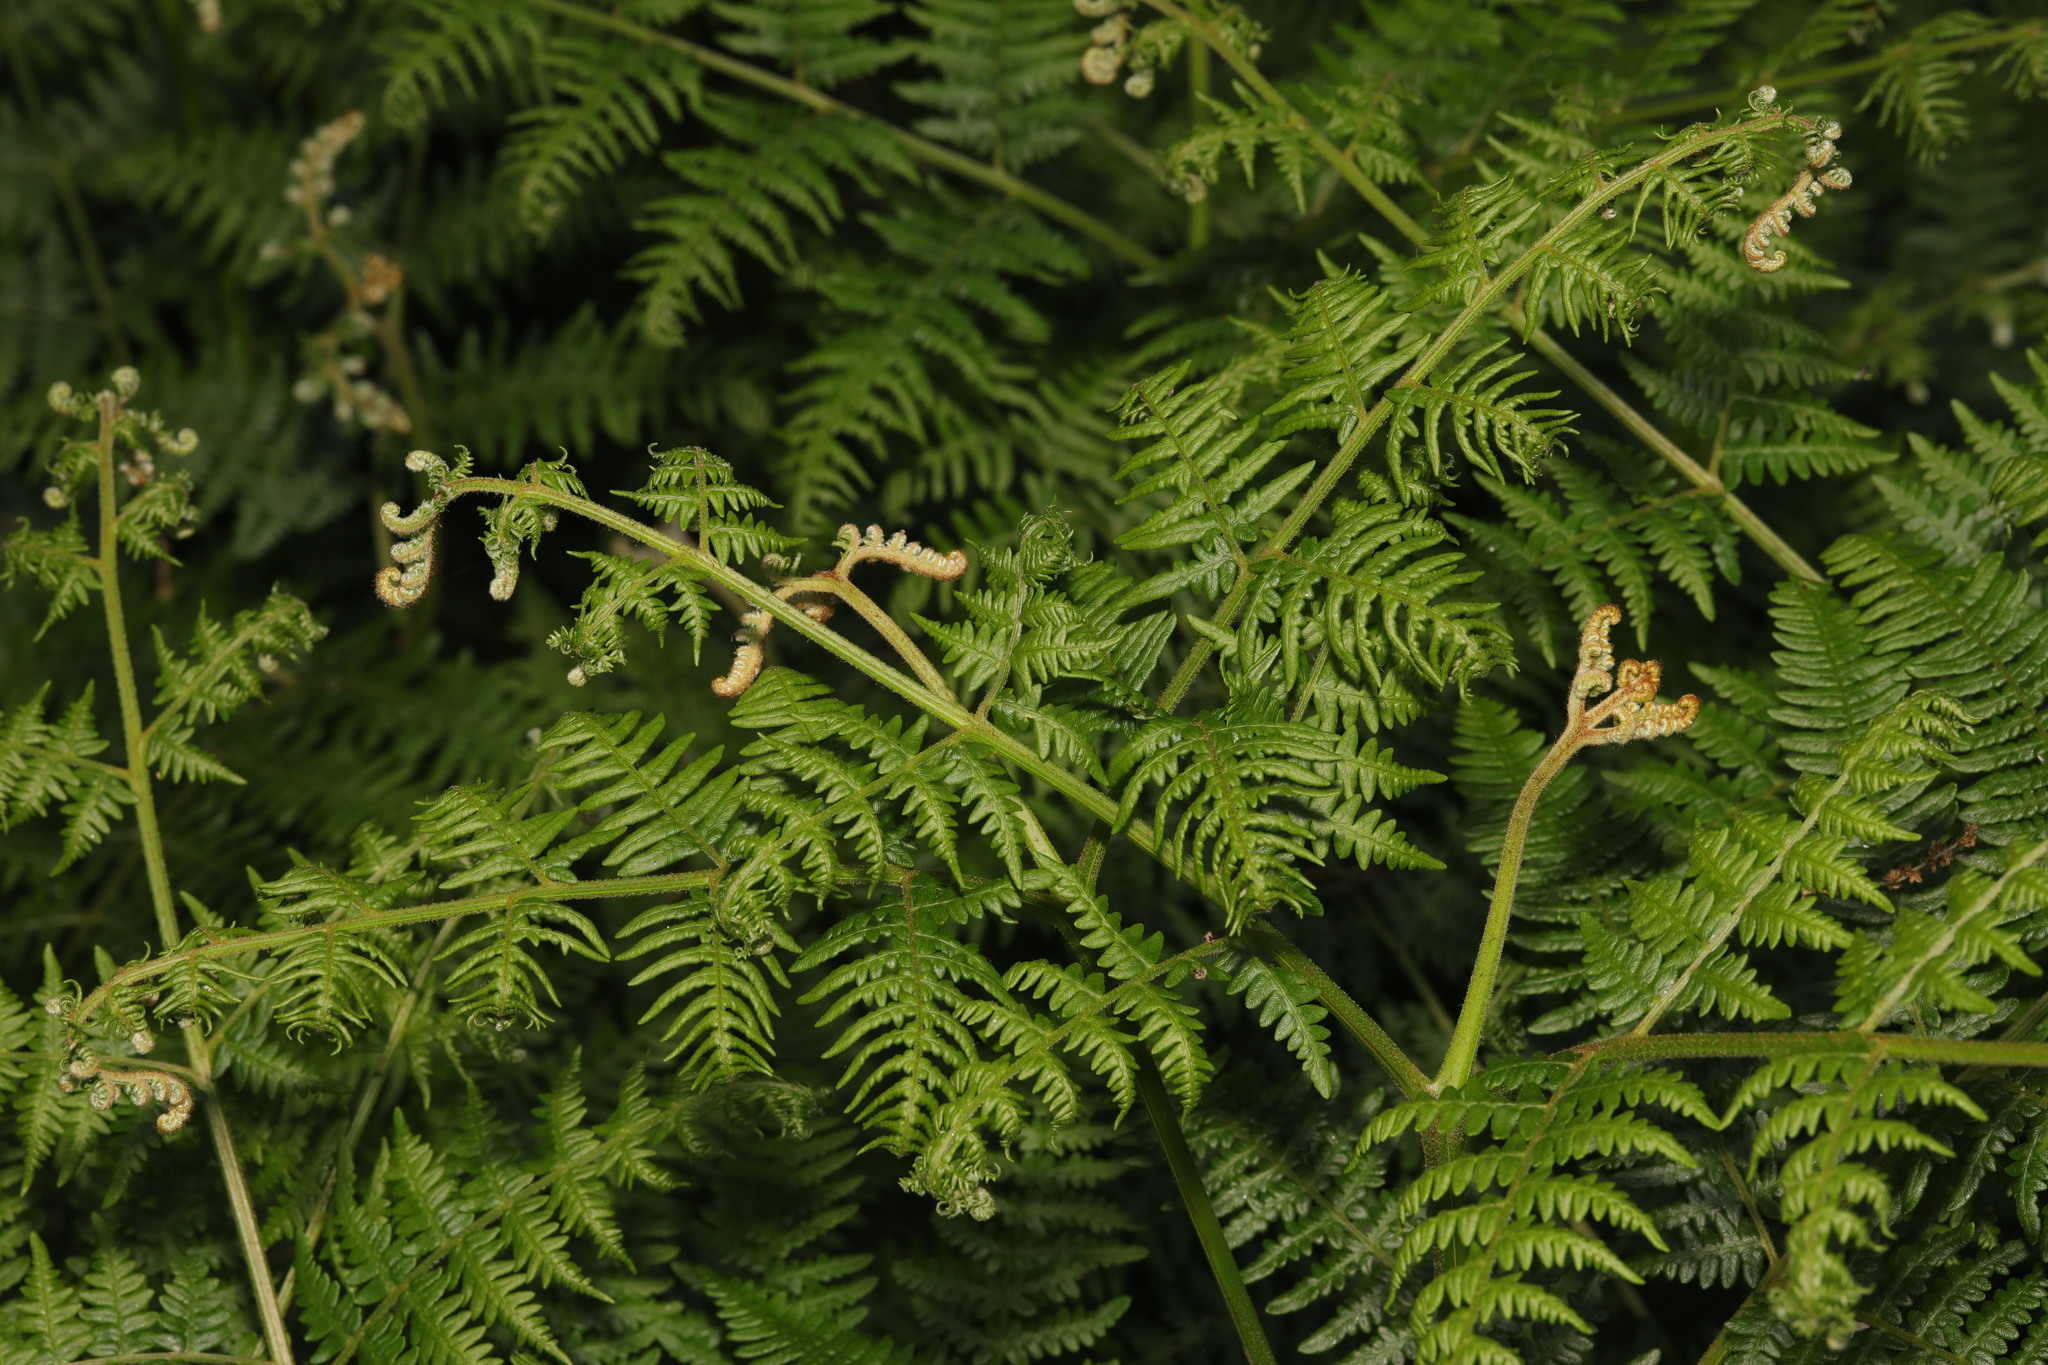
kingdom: Plantae
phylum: Tracheophyta
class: Polypodiopsida
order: Polypodiales
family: Dennstaedtiaceae
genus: Pteridium
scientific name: Pteridium aquilinum
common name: Bracken
